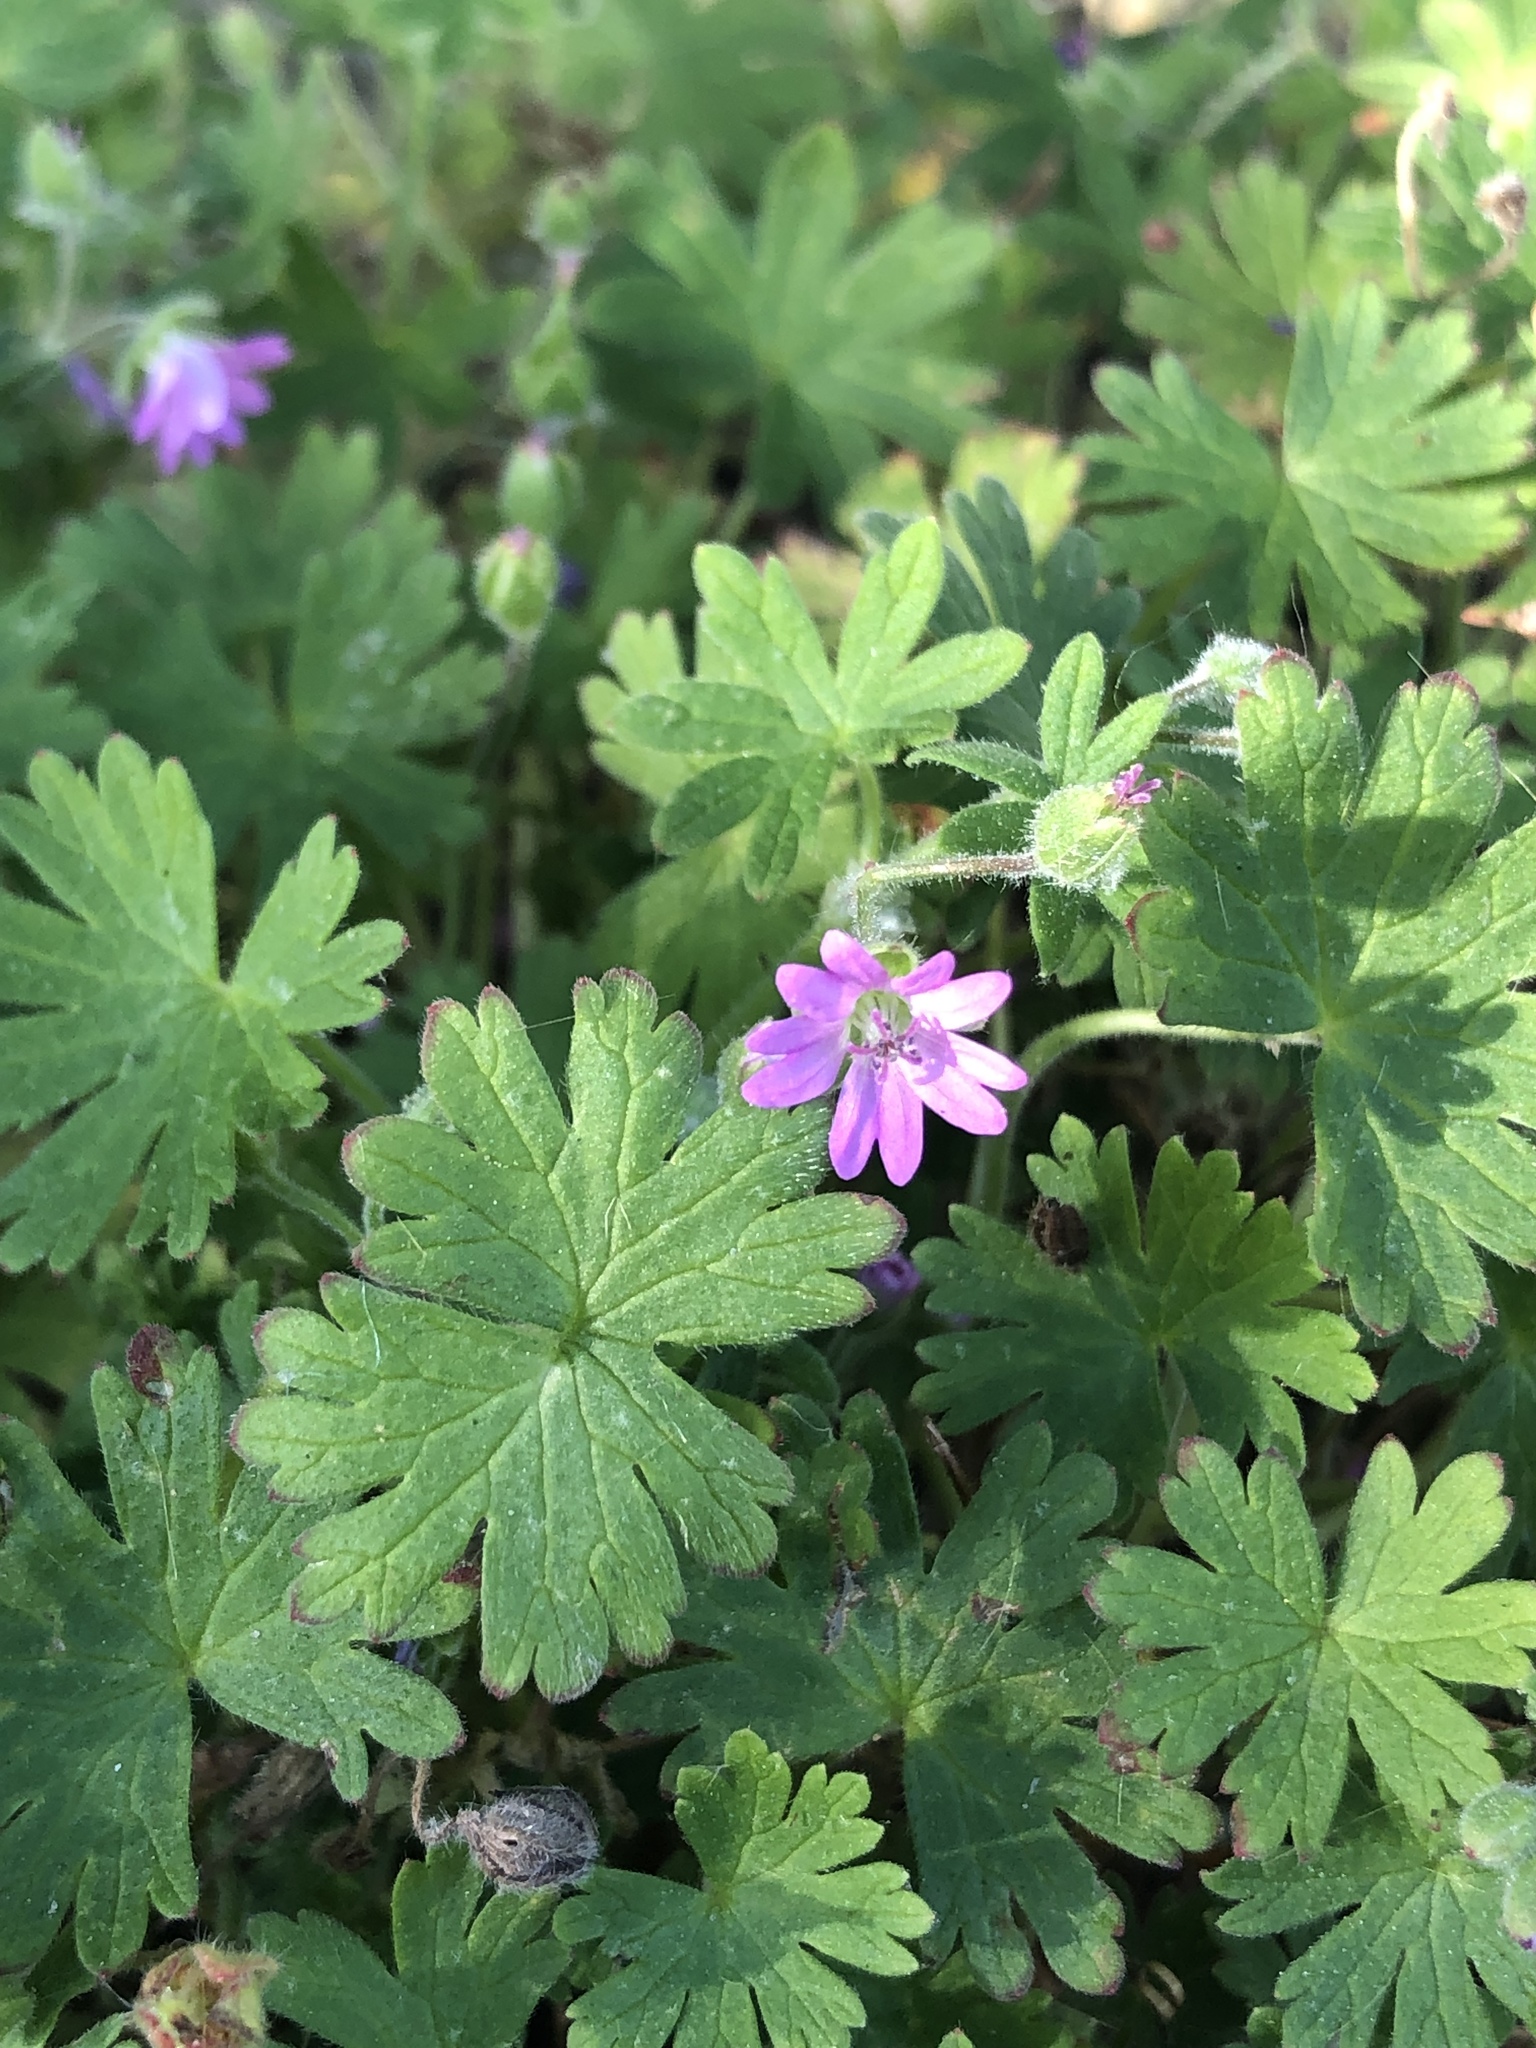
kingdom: Plantae
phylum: Tracheophyta
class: Magnoliopsida
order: Geraniales
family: Geraniaceae
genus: Geranium
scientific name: Geranium molle
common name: Dove's-foot crane's-bill
